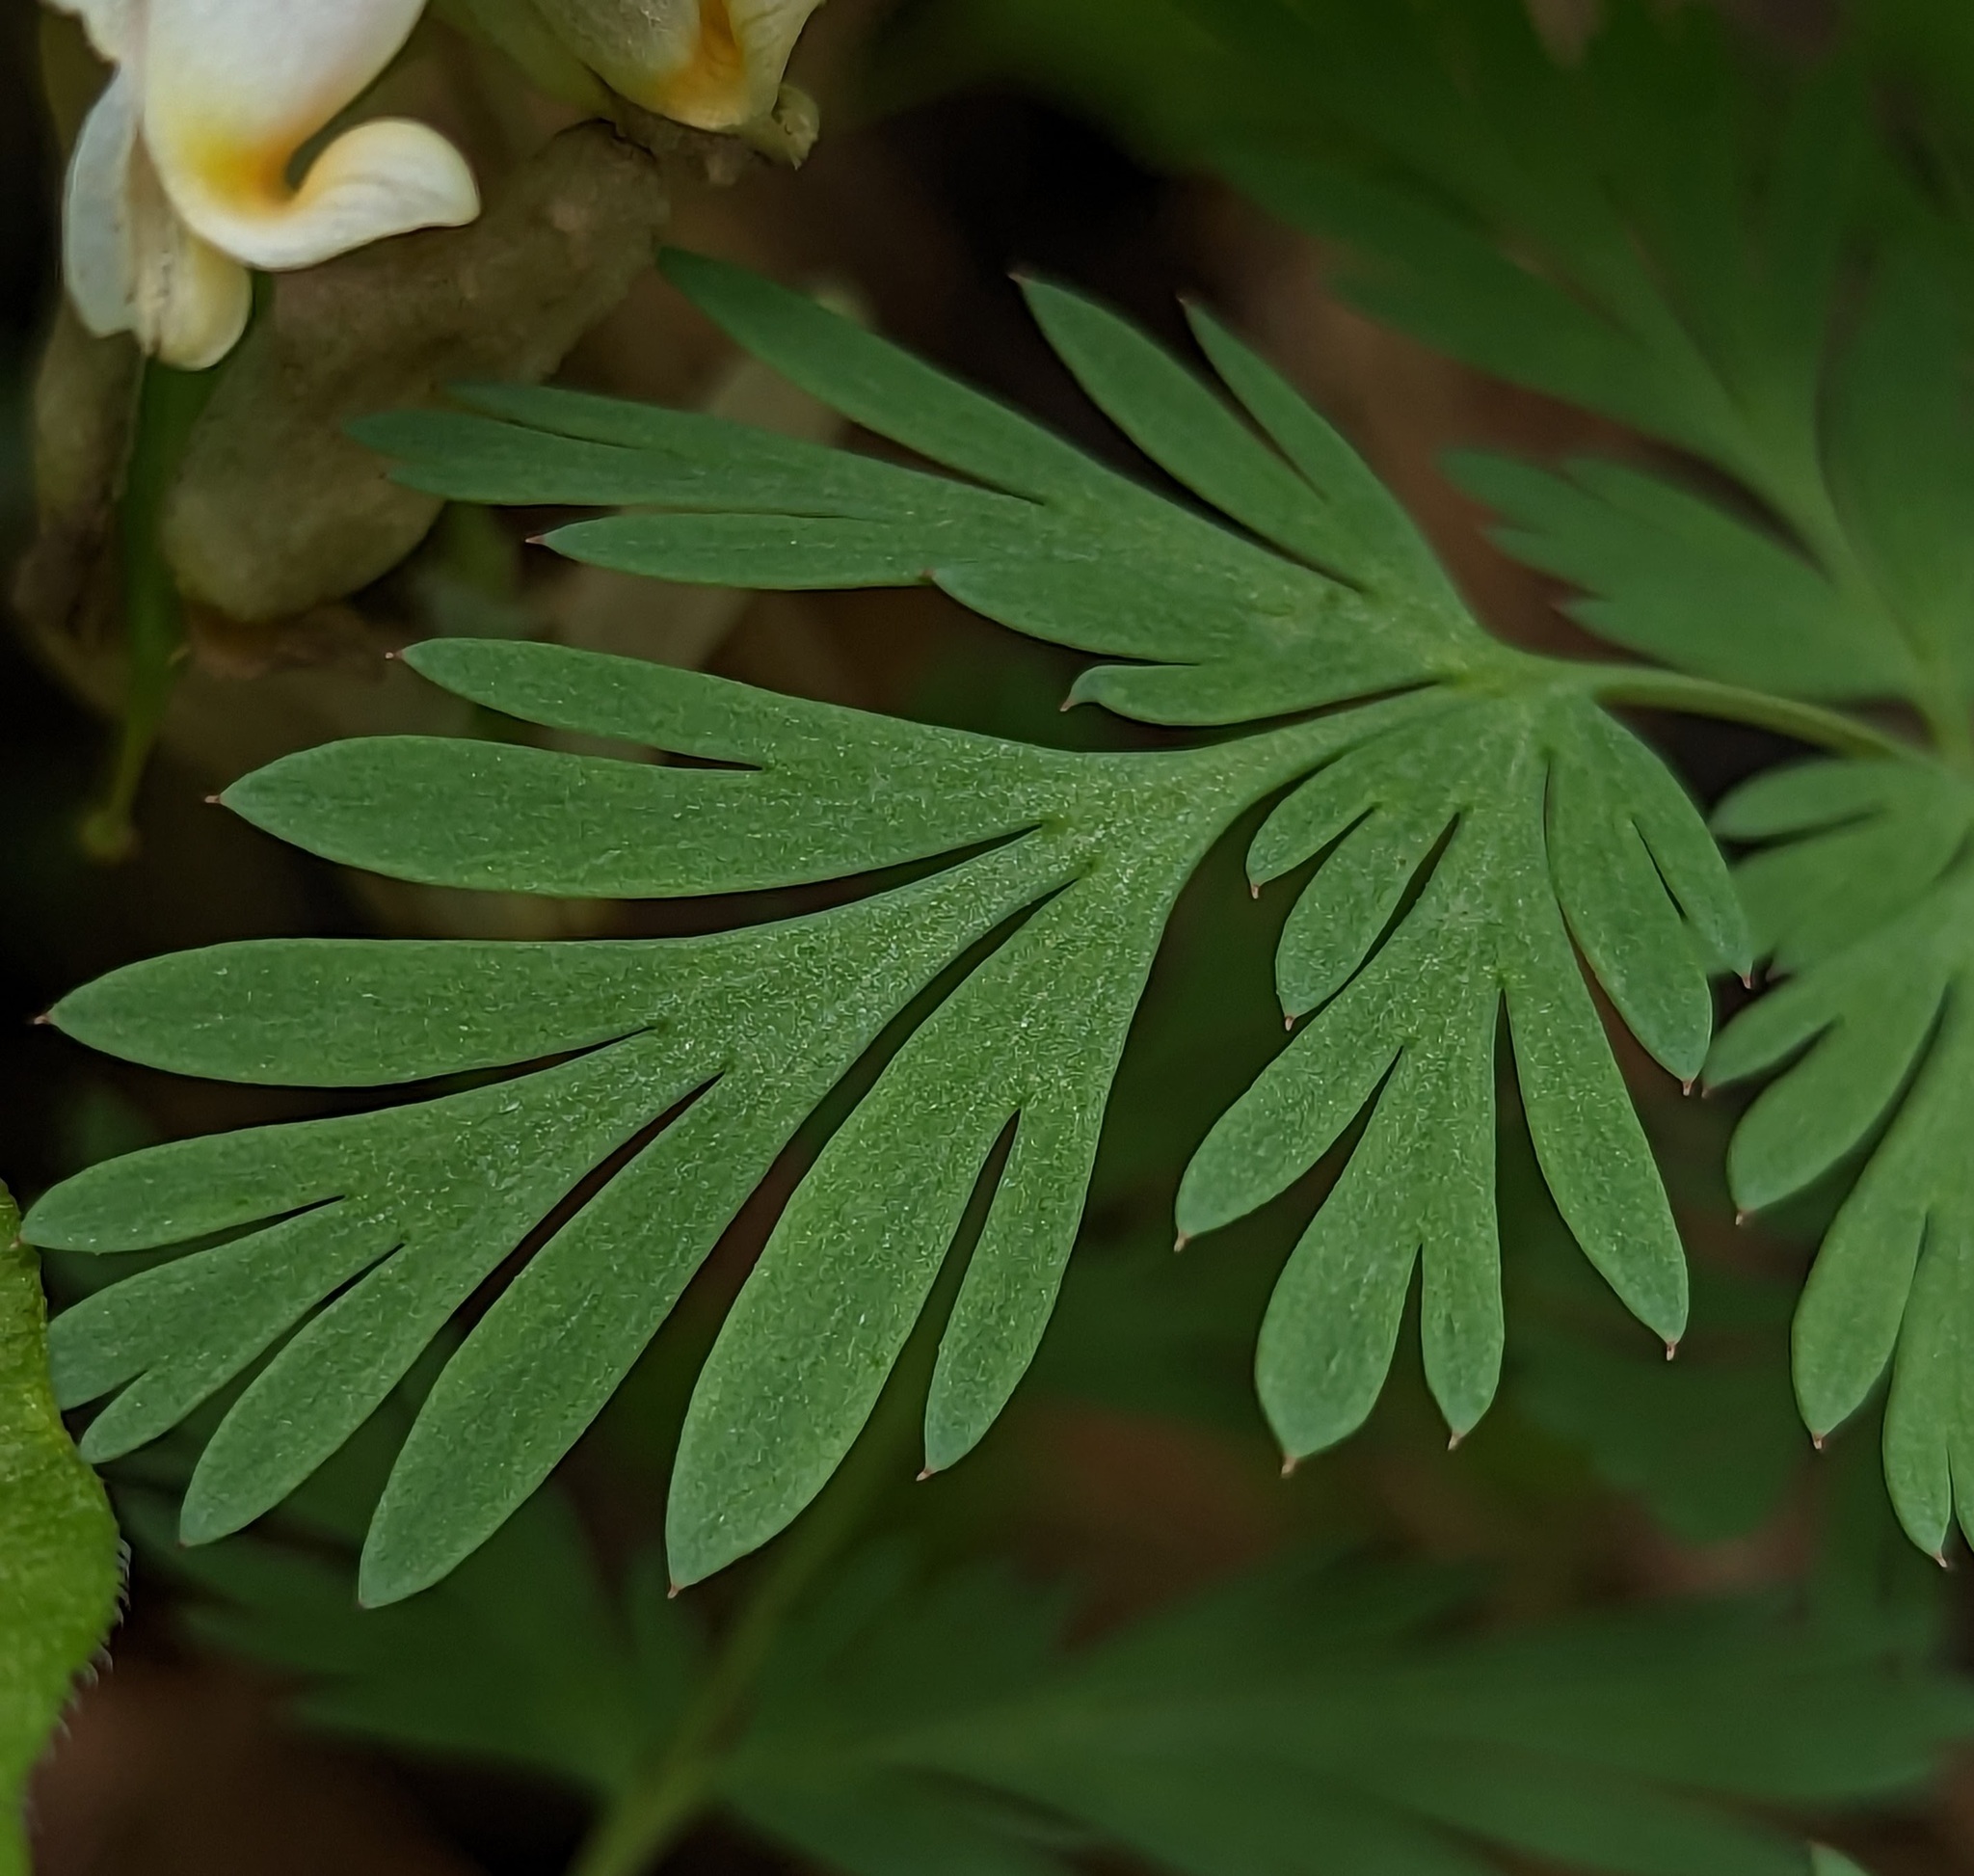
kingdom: Plantae
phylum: Tracheophyta
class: Magnoliopsida
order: Ranunculales
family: Papaveraceae
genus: Dicentra
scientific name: Dicentra cucullaria
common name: Dutchman's breeches
